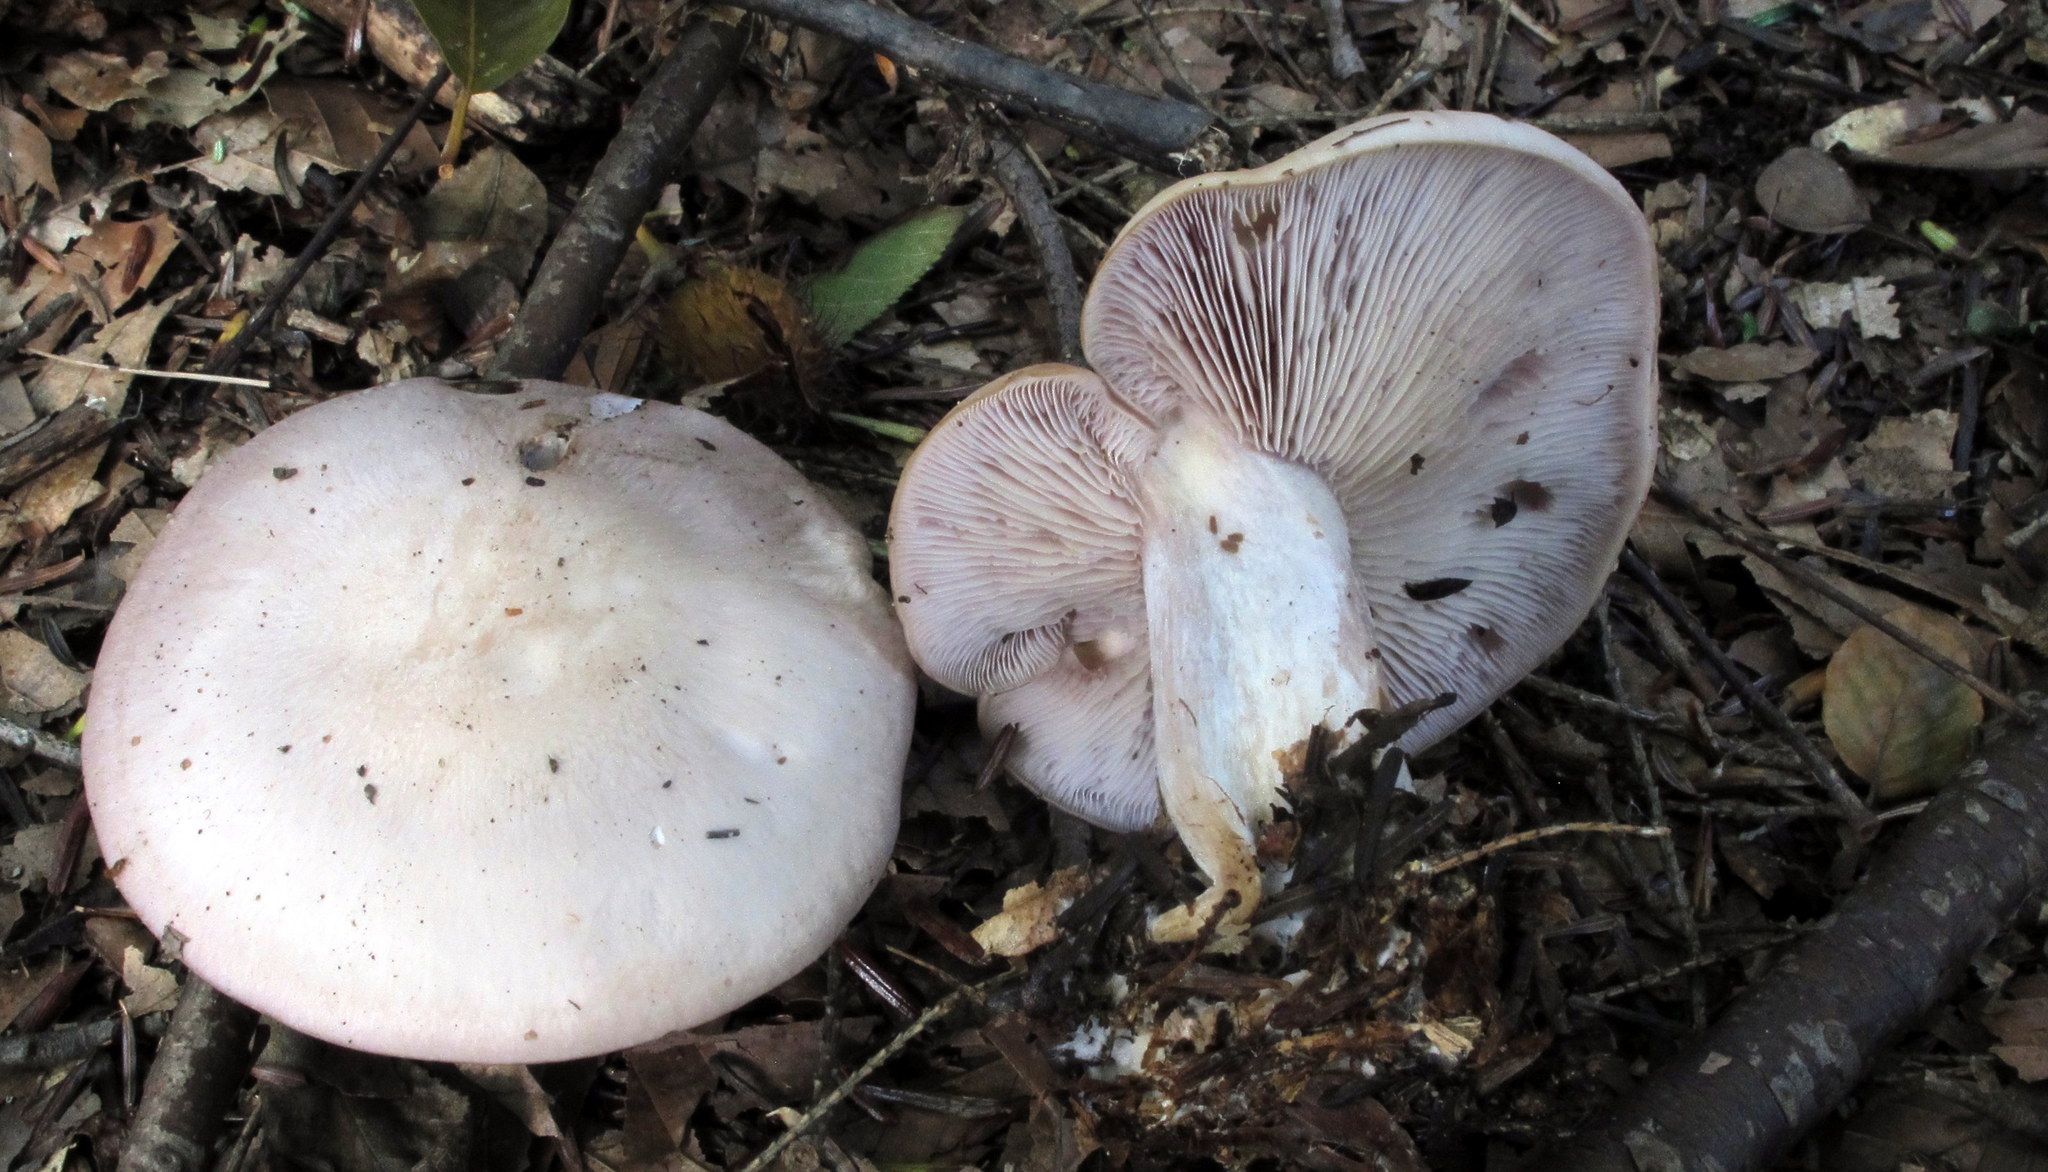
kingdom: Fungi
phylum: Basidiomycota
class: Agaricomycetes
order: Agaricales
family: Tricholomataceae
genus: Collybia
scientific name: Collybia
